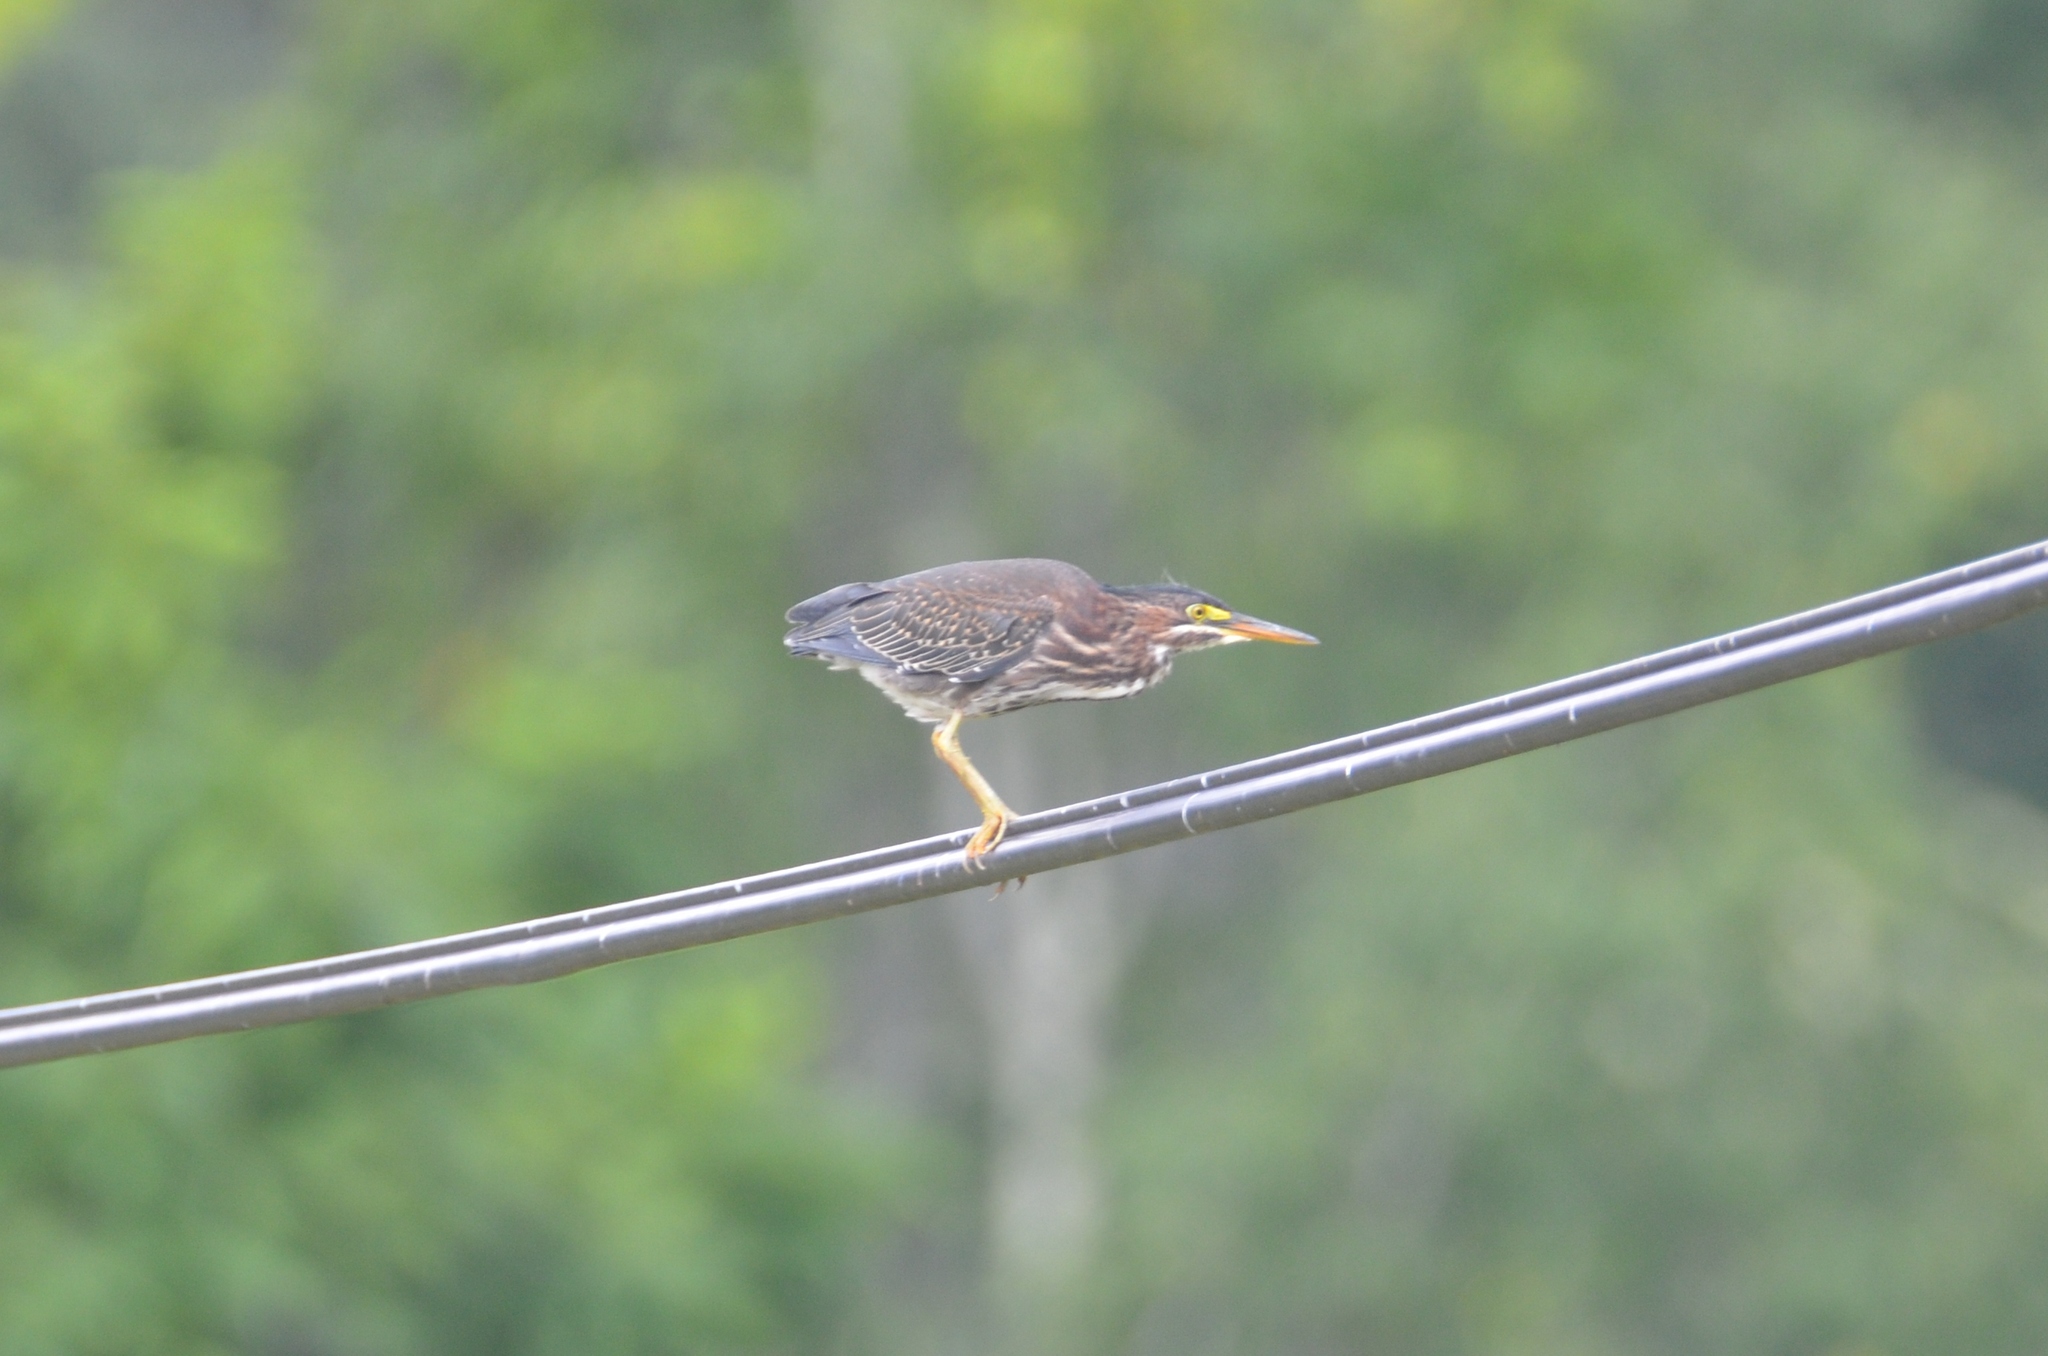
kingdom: Animalia
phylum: Chordata
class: Aves
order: Pelecaniformes
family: Ardeidae
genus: Butorides
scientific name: Butorides virescens
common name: Green heron
